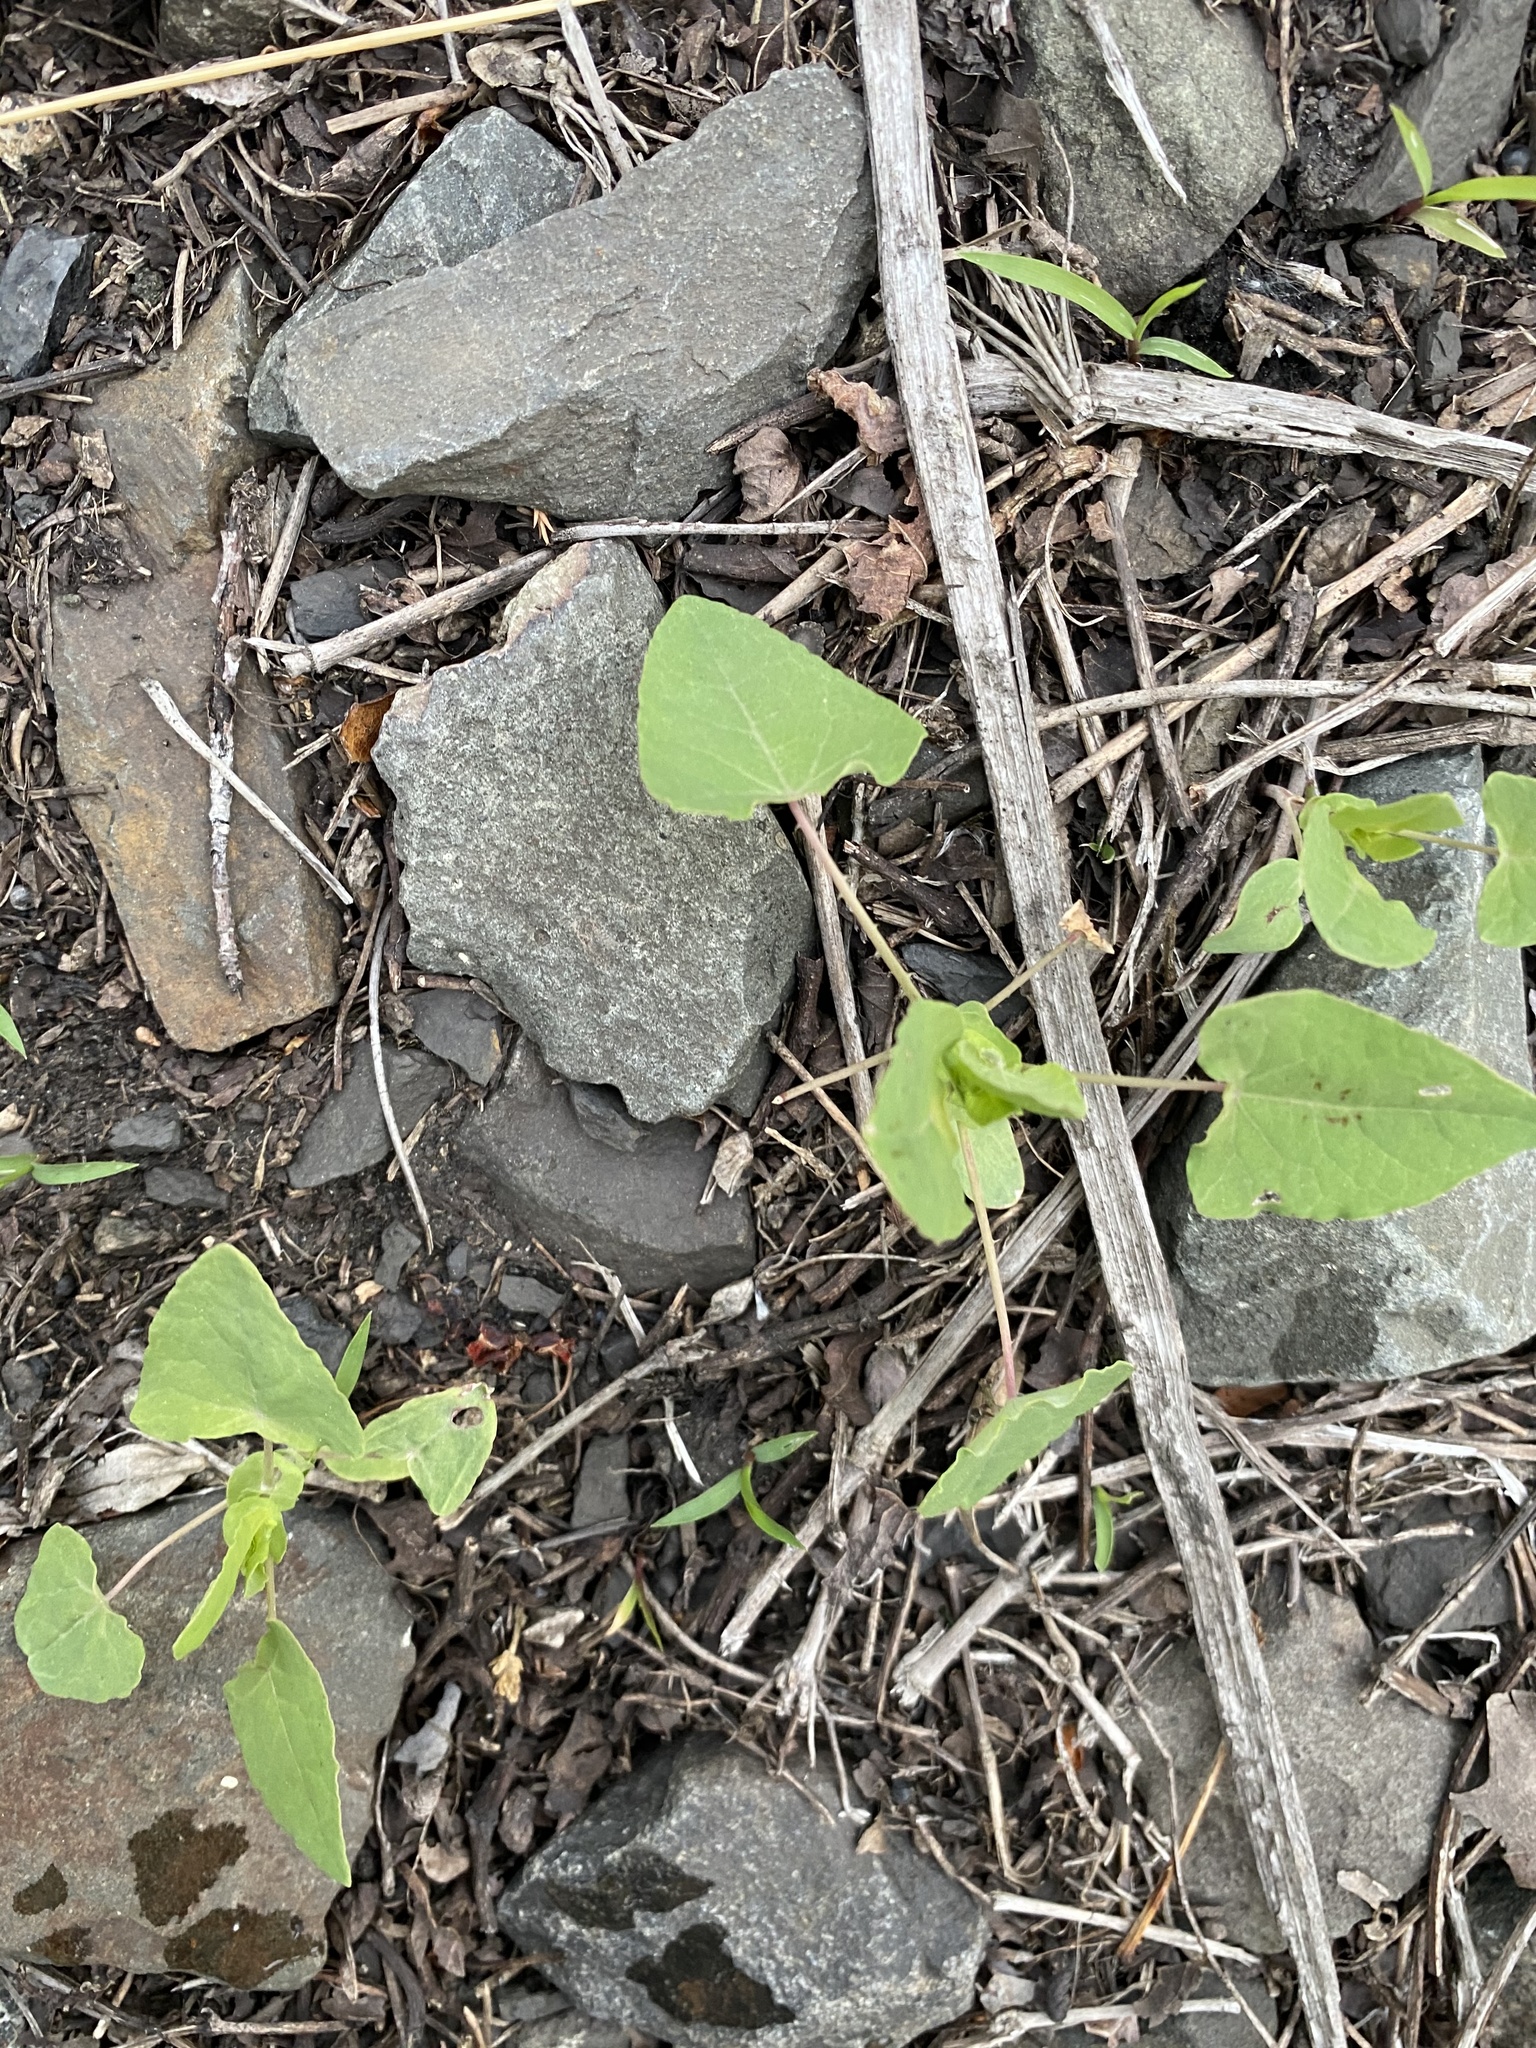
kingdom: Plantae
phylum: Tracheophyta
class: Magnoliopsida
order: Caryophyllales
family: Polygonaceae
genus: Persicaria
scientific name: Persicaria perfoliata
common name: Asiatic tearthumb
